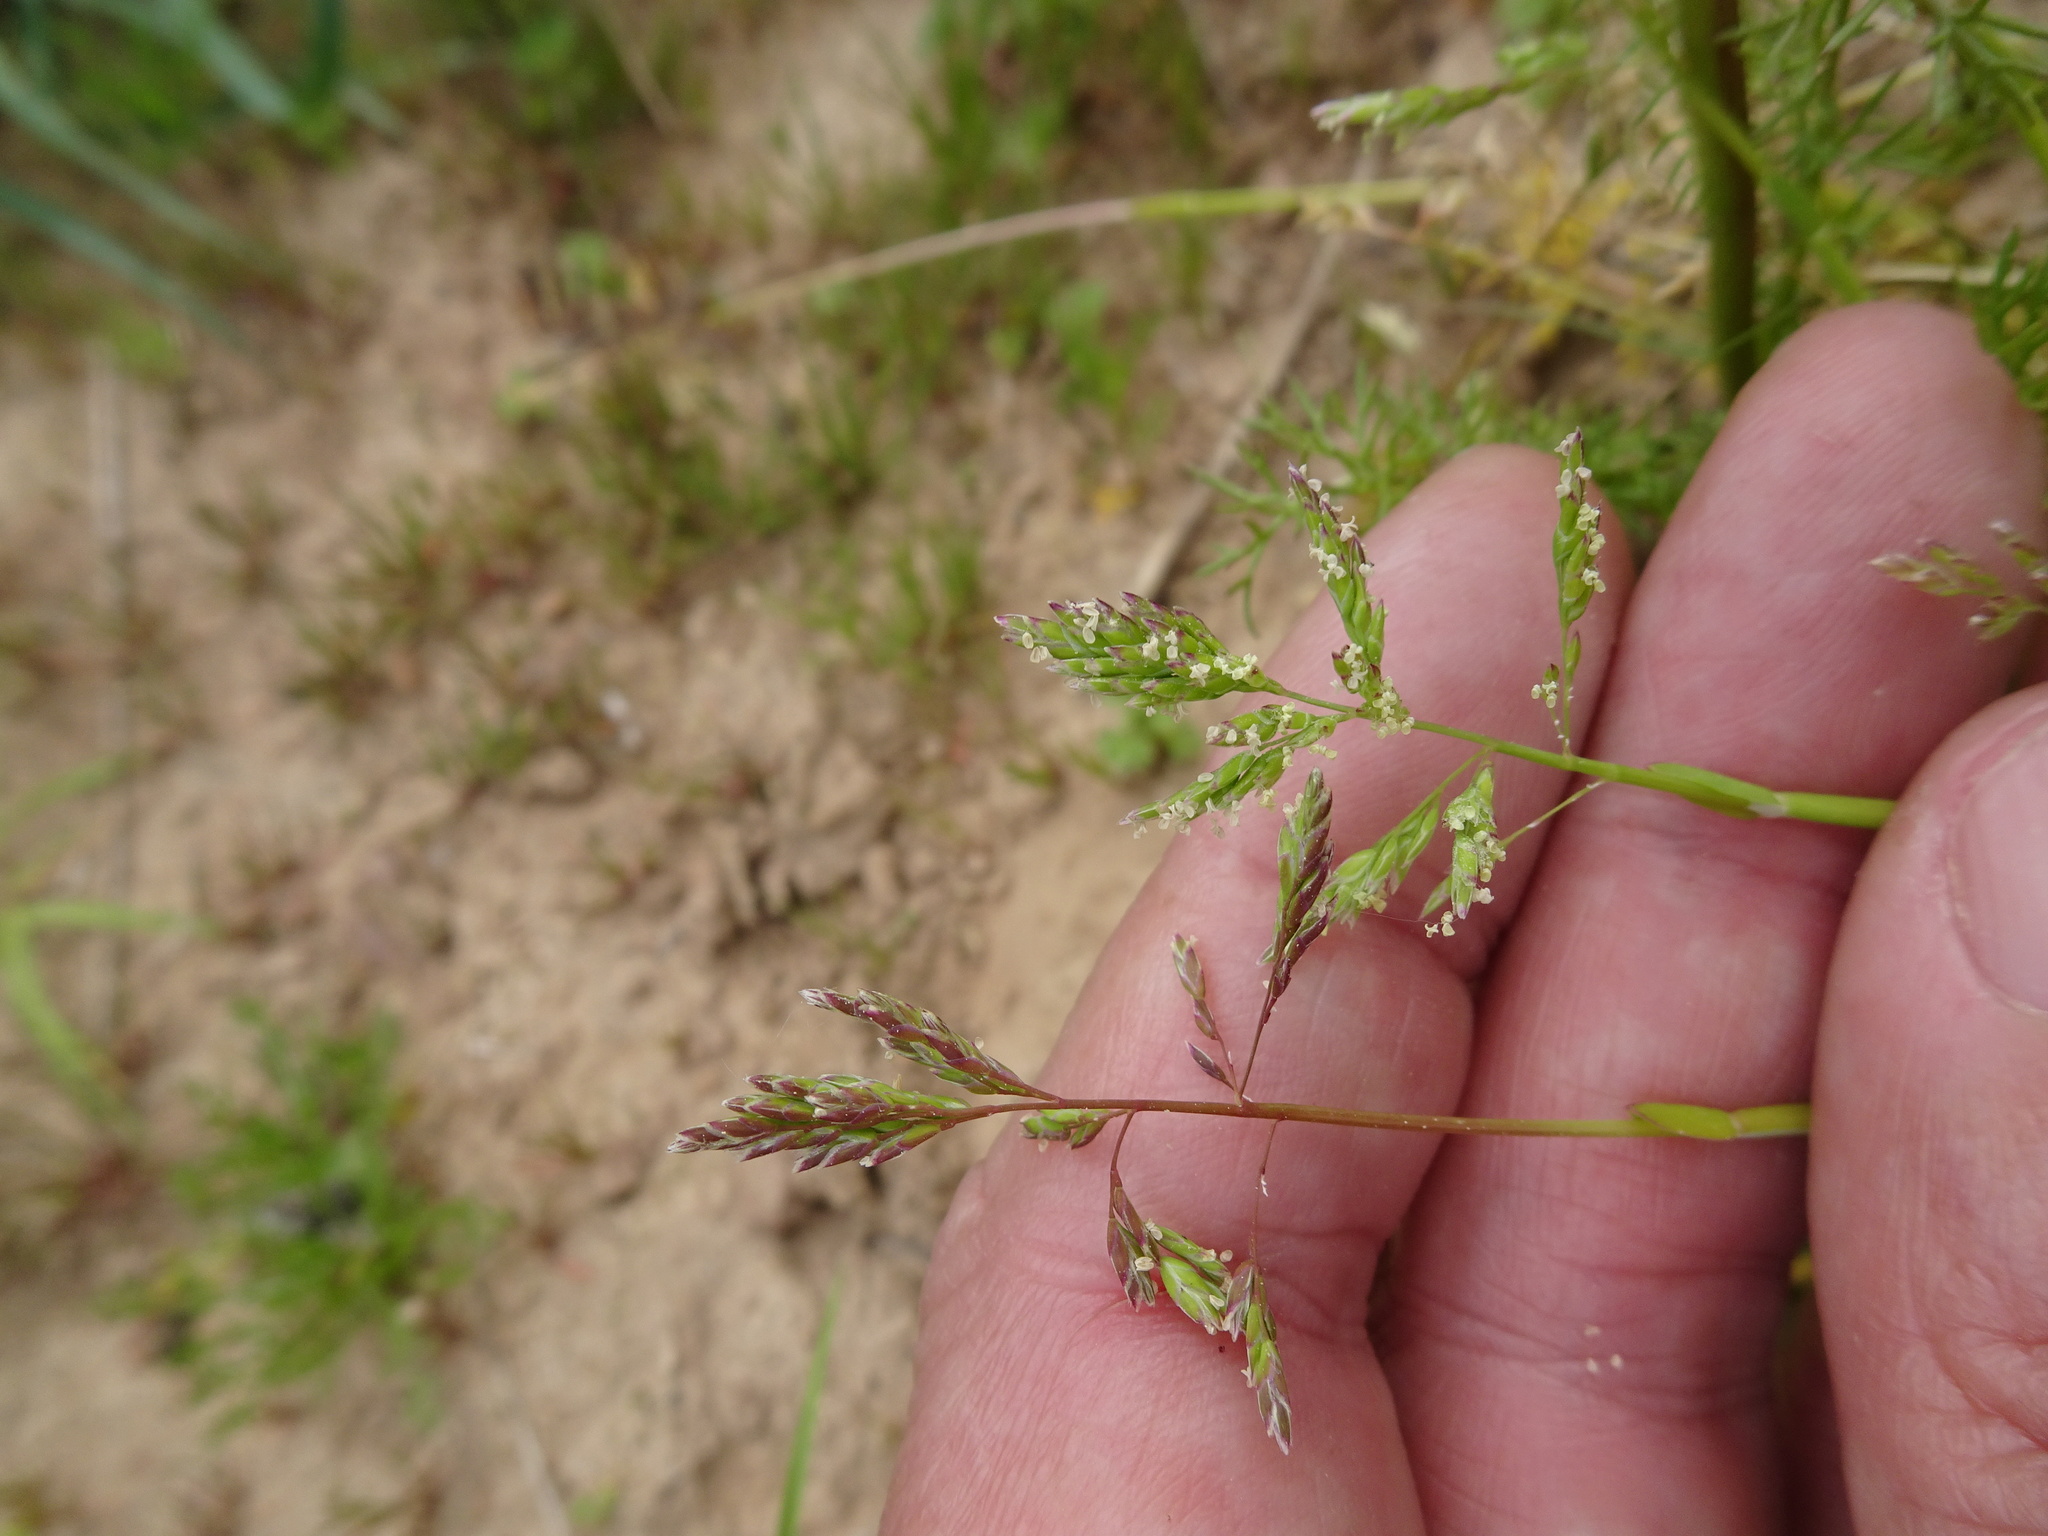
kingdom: Plantae
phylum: Tracheophyta
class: Liliopsida
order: Poales
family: Poaceae
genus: Poa
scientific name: Poa annua
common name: Annual bluegrass
